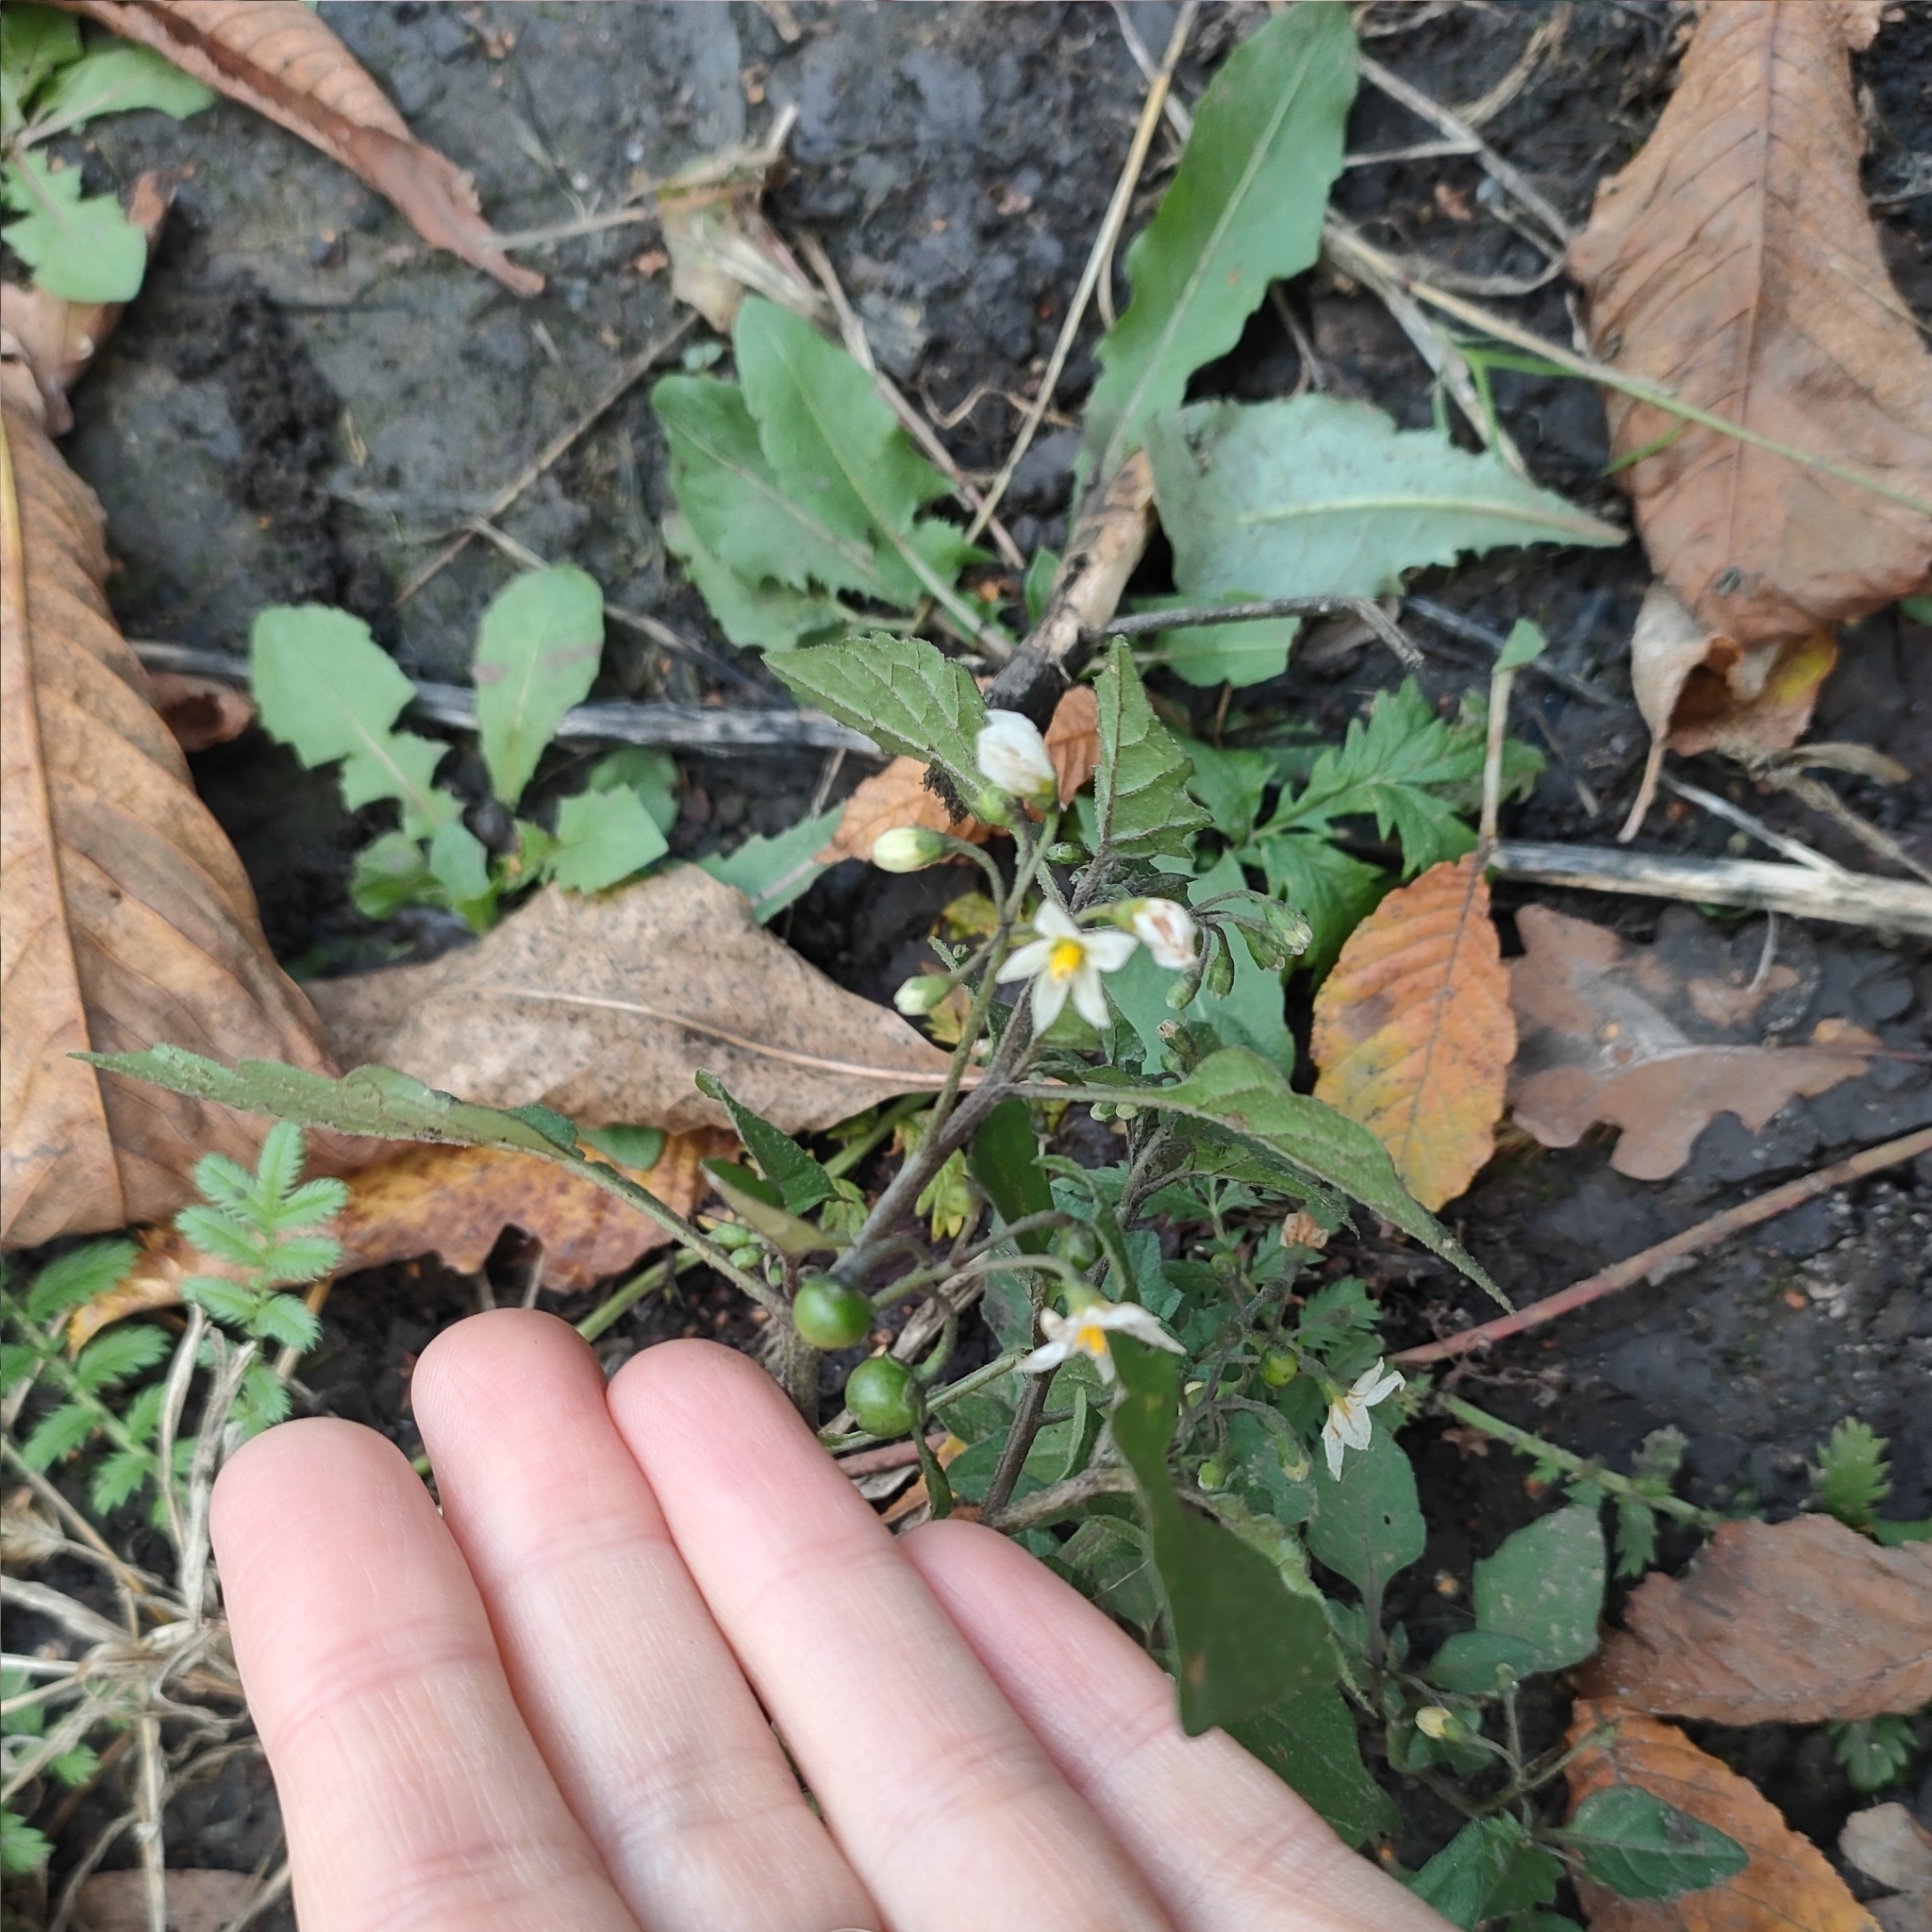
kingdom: Plantae
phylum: Tracheophyta
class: Magnoliopsida
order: Solanales
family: Solanaceae
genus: Solanum
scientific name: Solanum nigrum
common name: Black nightshade
